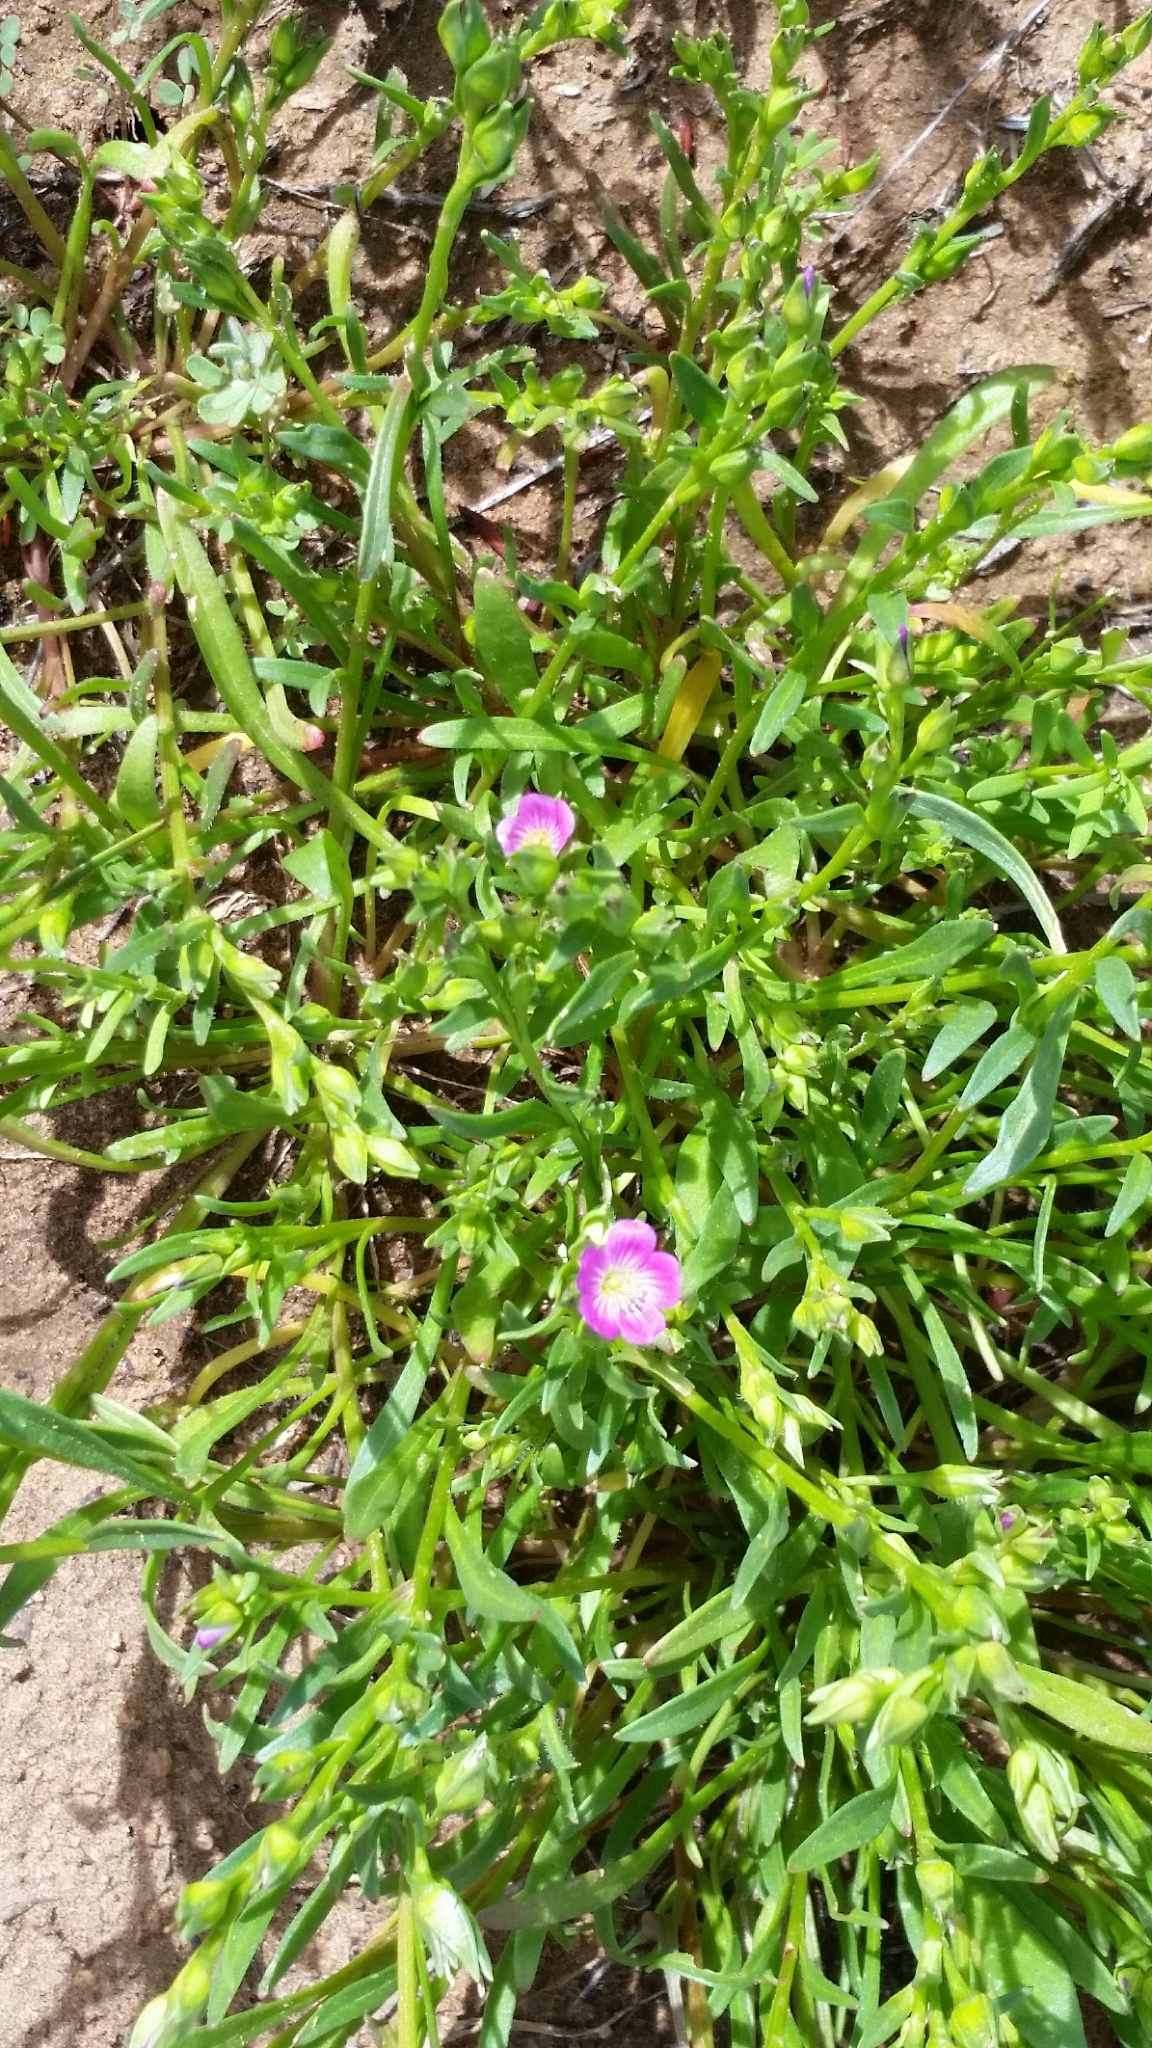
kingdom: Plantae
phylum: Tracheophyta
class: Magnoliopsida
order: Caryophyllales
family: Montiaceae
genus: Calandrinia
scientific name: Calandrinia menziesii
